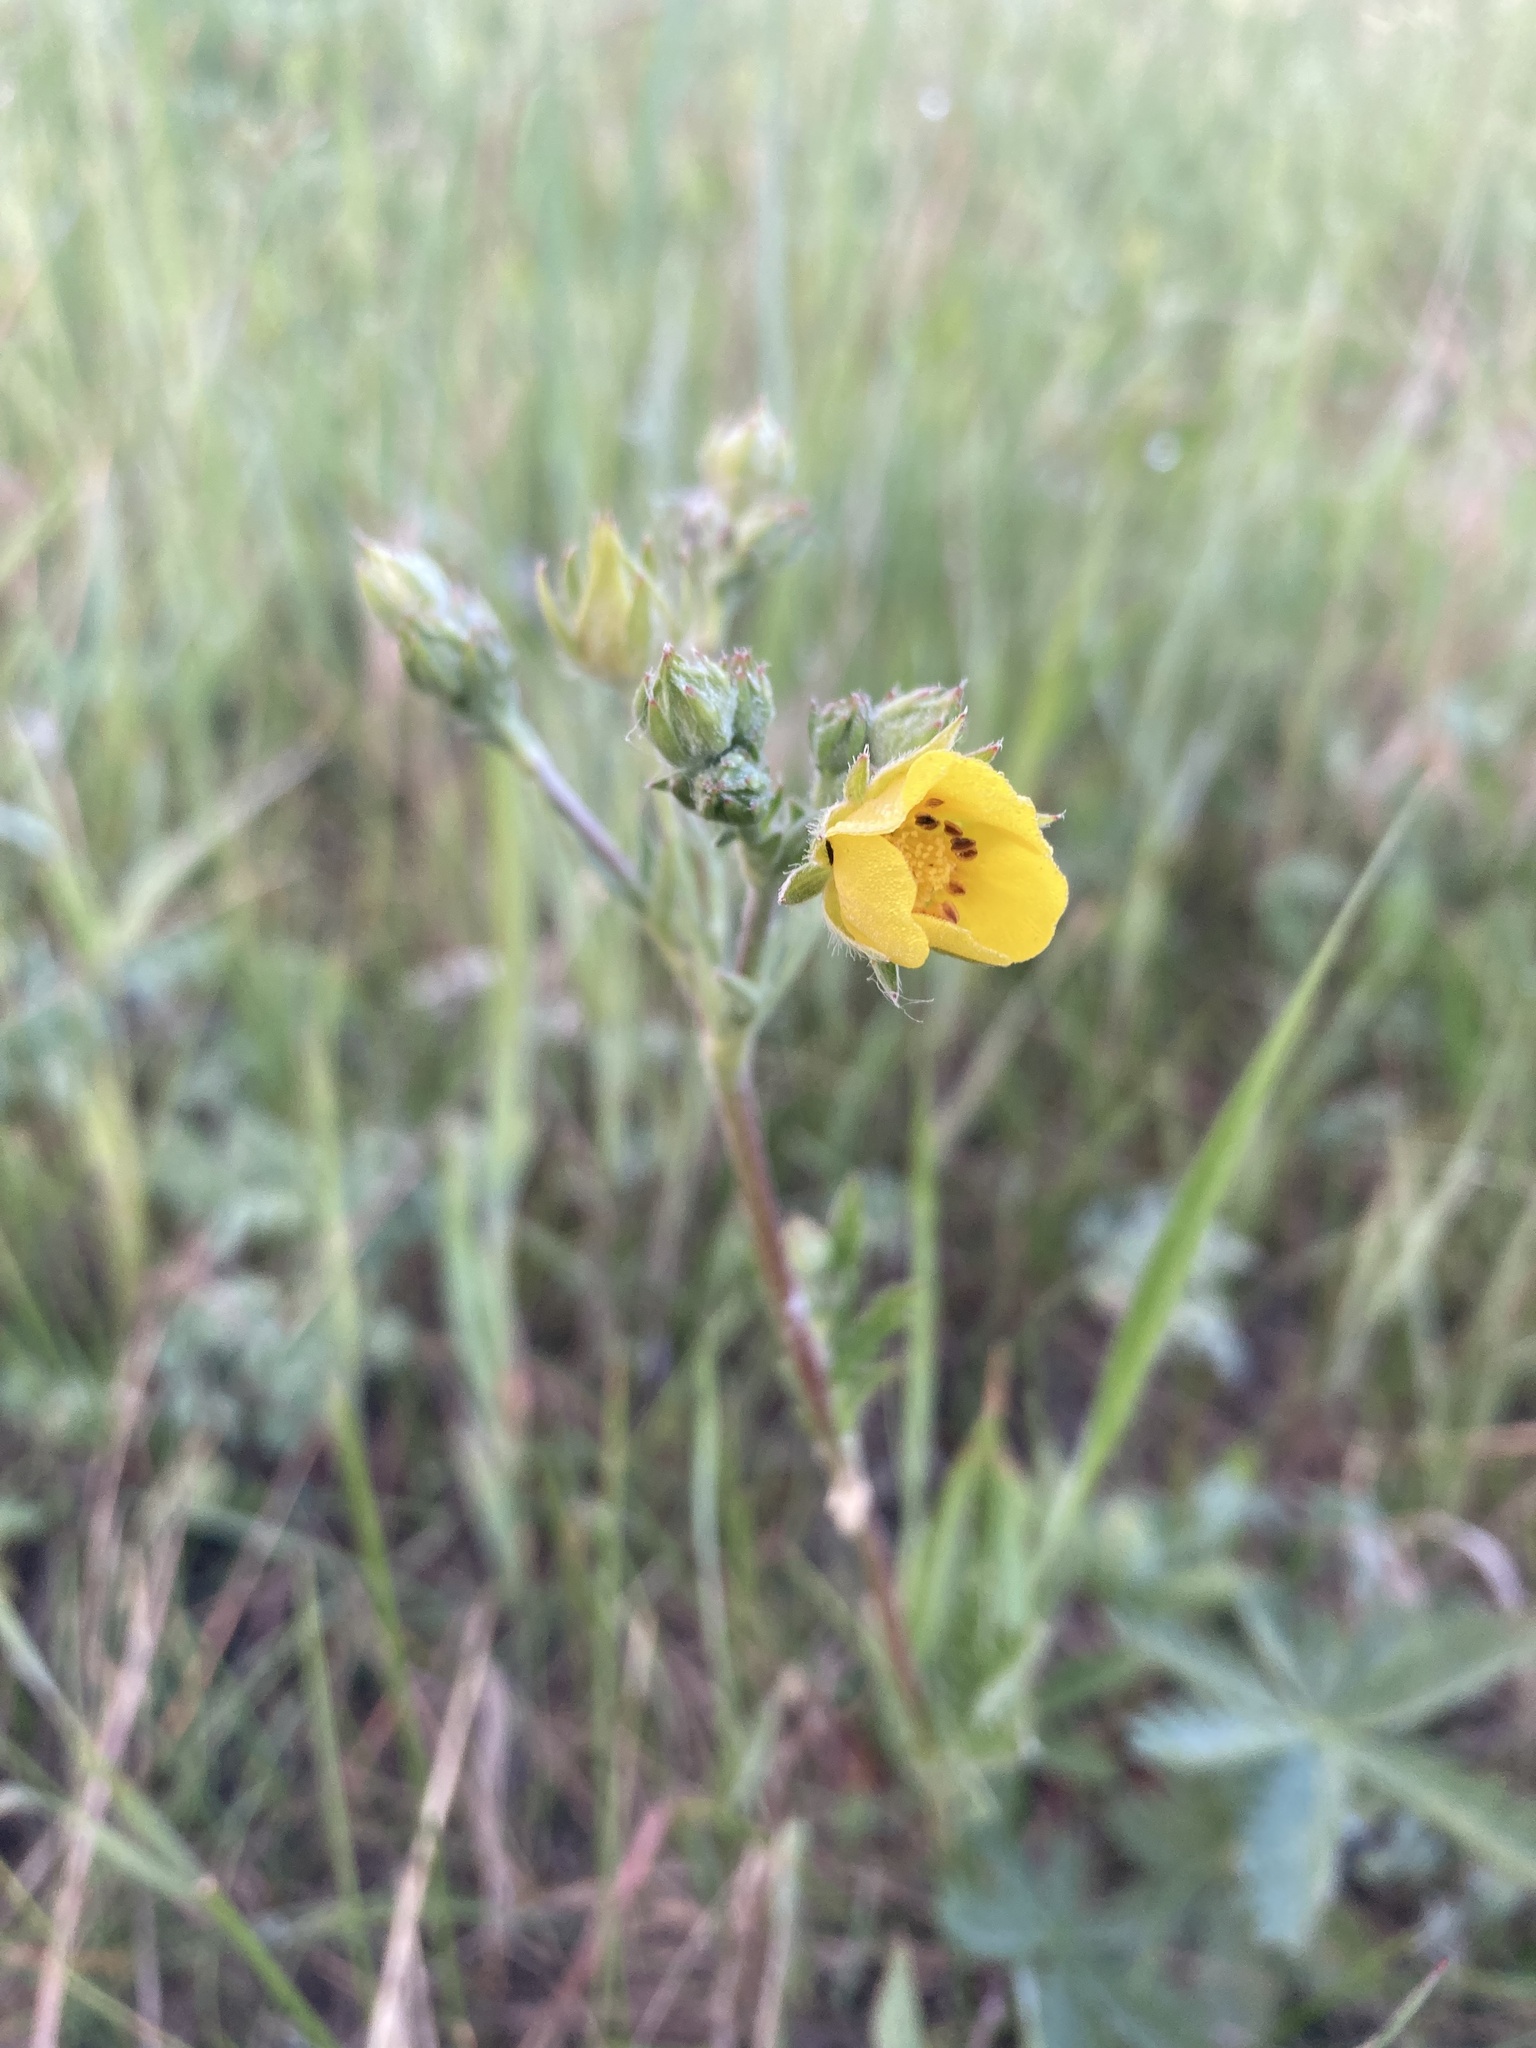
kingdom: Plantae
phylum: Tracheophyta
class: Magnoliopsida
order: Rosales
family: Rosaceae
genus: Potentilla
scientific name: Potentilla gracilis
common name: Graceful cinquefoil
